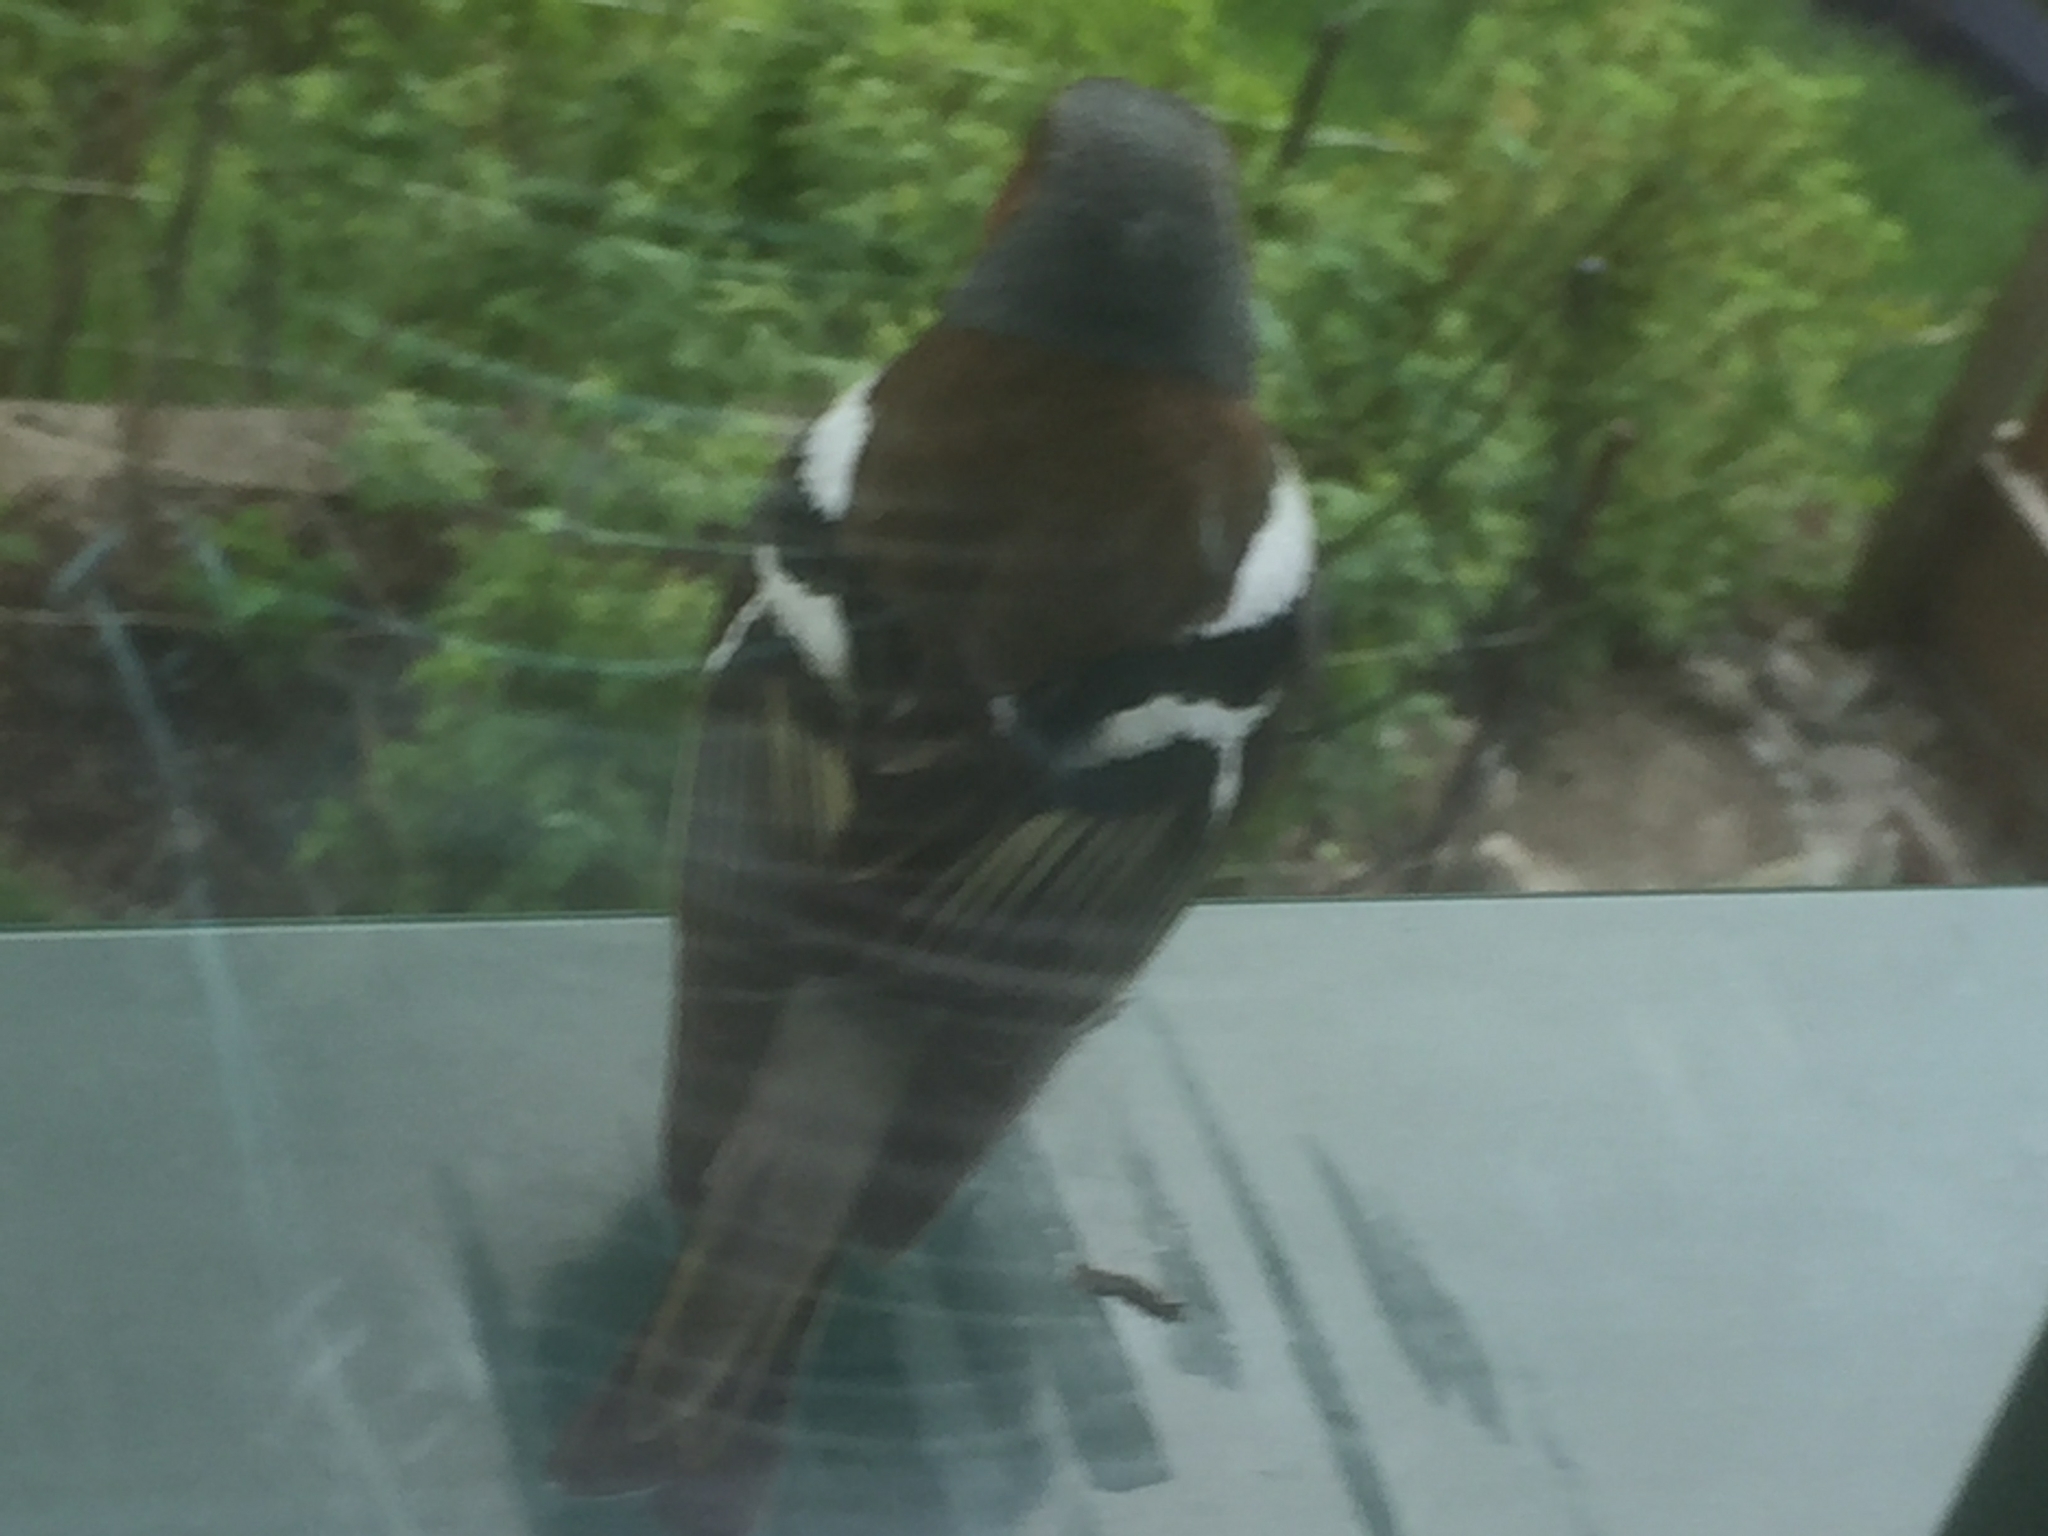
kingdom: Animalia
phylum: Chordata
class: Aves
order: Passeriformes
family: Fringillidae
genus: Fringilla
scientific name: Fringilla coelebs
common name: Common chaffinch
